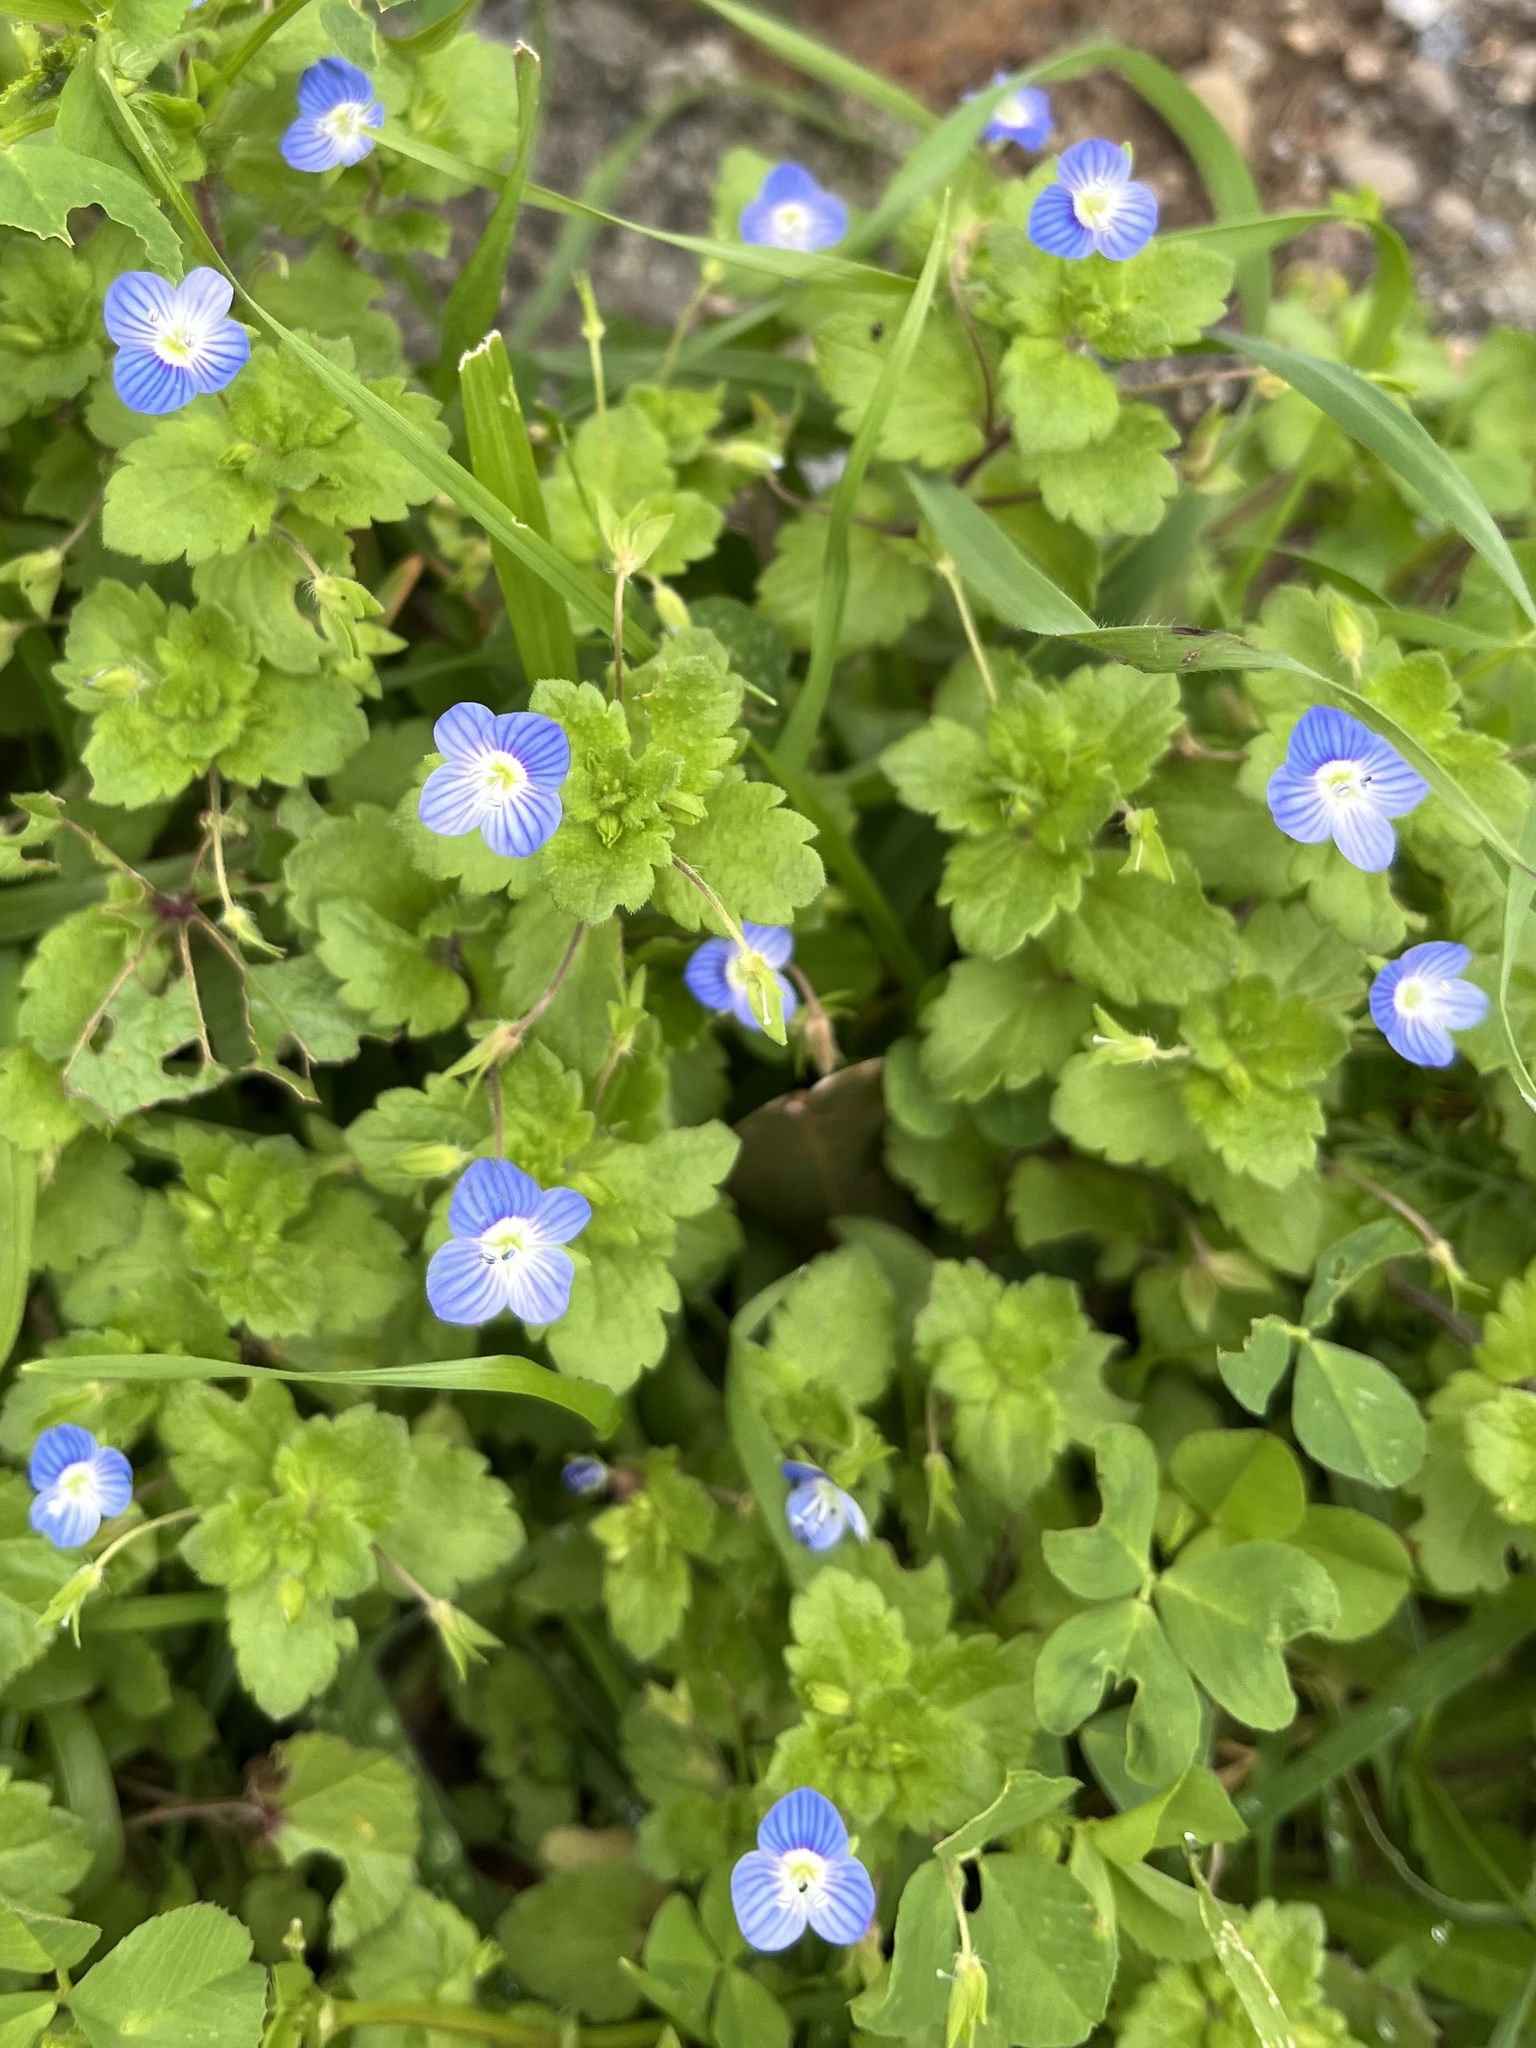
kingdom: Plantae
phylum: Tracheophyta
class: Magnoliopsida
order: Lamiales
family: Plantaginaceae
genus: Veronica
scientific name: Veronica persica
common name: Common field-speedwell
